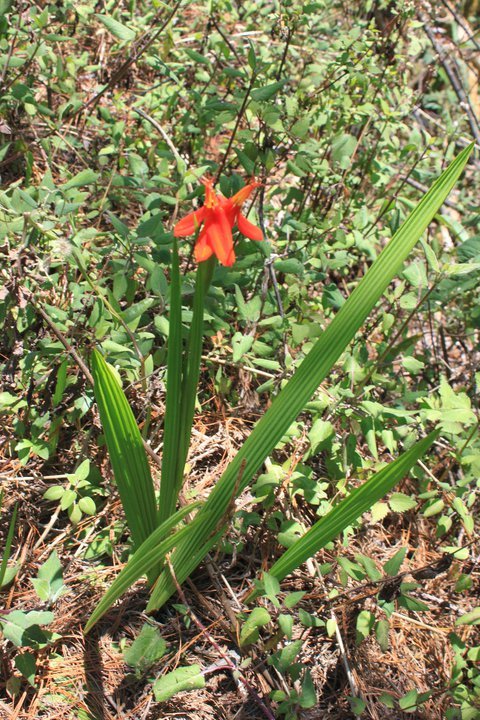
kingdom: Plantae
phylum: Tracheophyta
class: Liliopsida
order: Asparagales
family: Iridaceae
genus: Tigridia
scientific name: Tigridia orthantha
